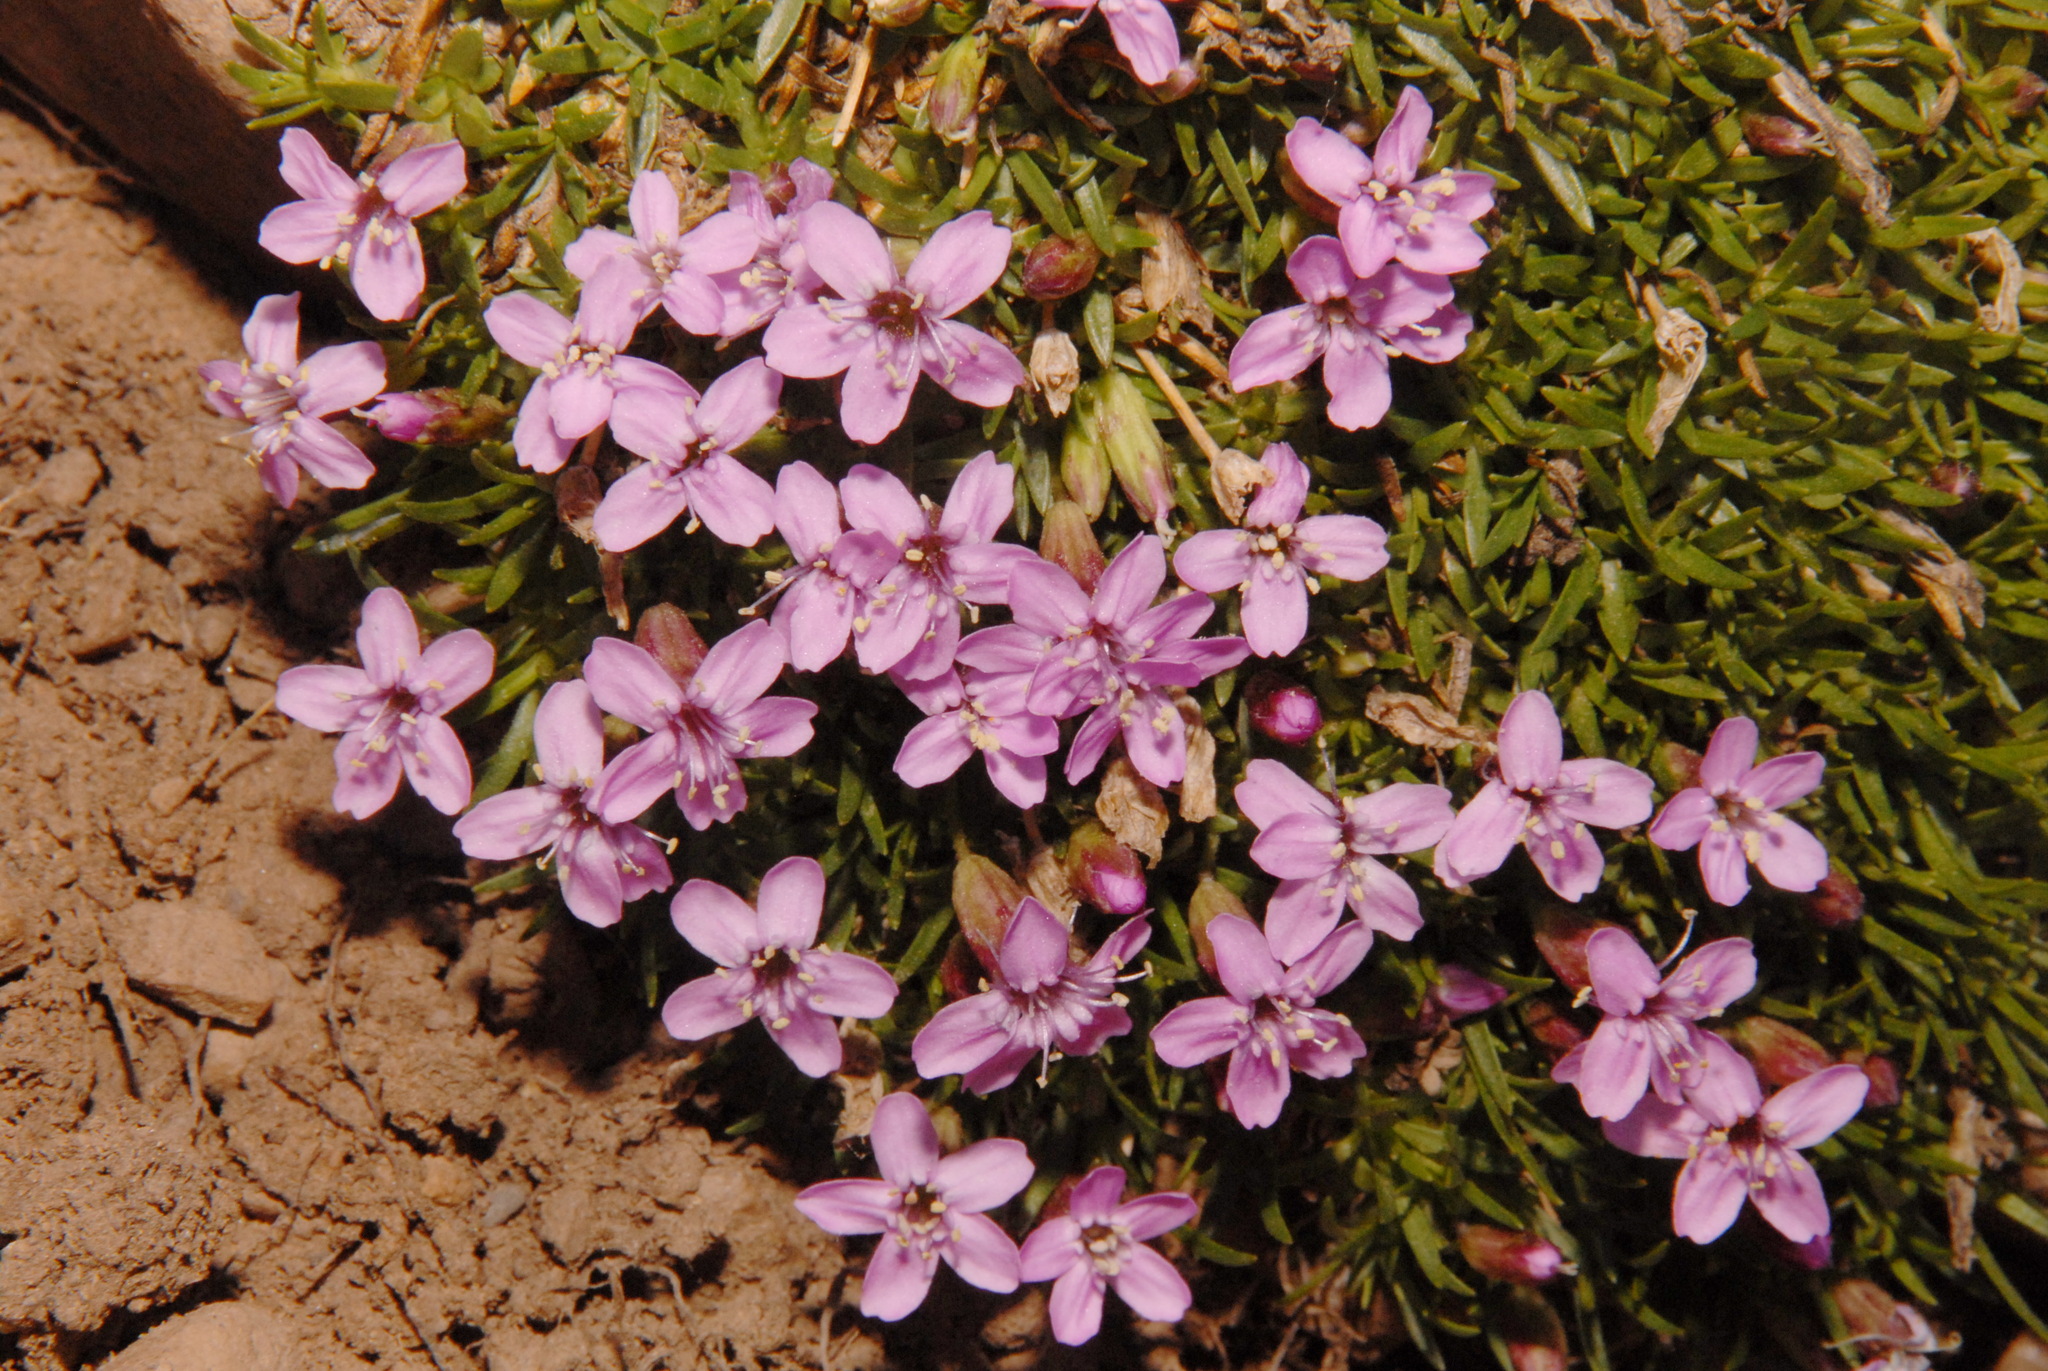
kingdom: Plantae
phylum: Tracheophyta
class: Magnoliopsida
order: Caryophyllales
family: Caryophyllaceae
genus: Silene
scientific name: Silene acaulis
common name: Moss campion
